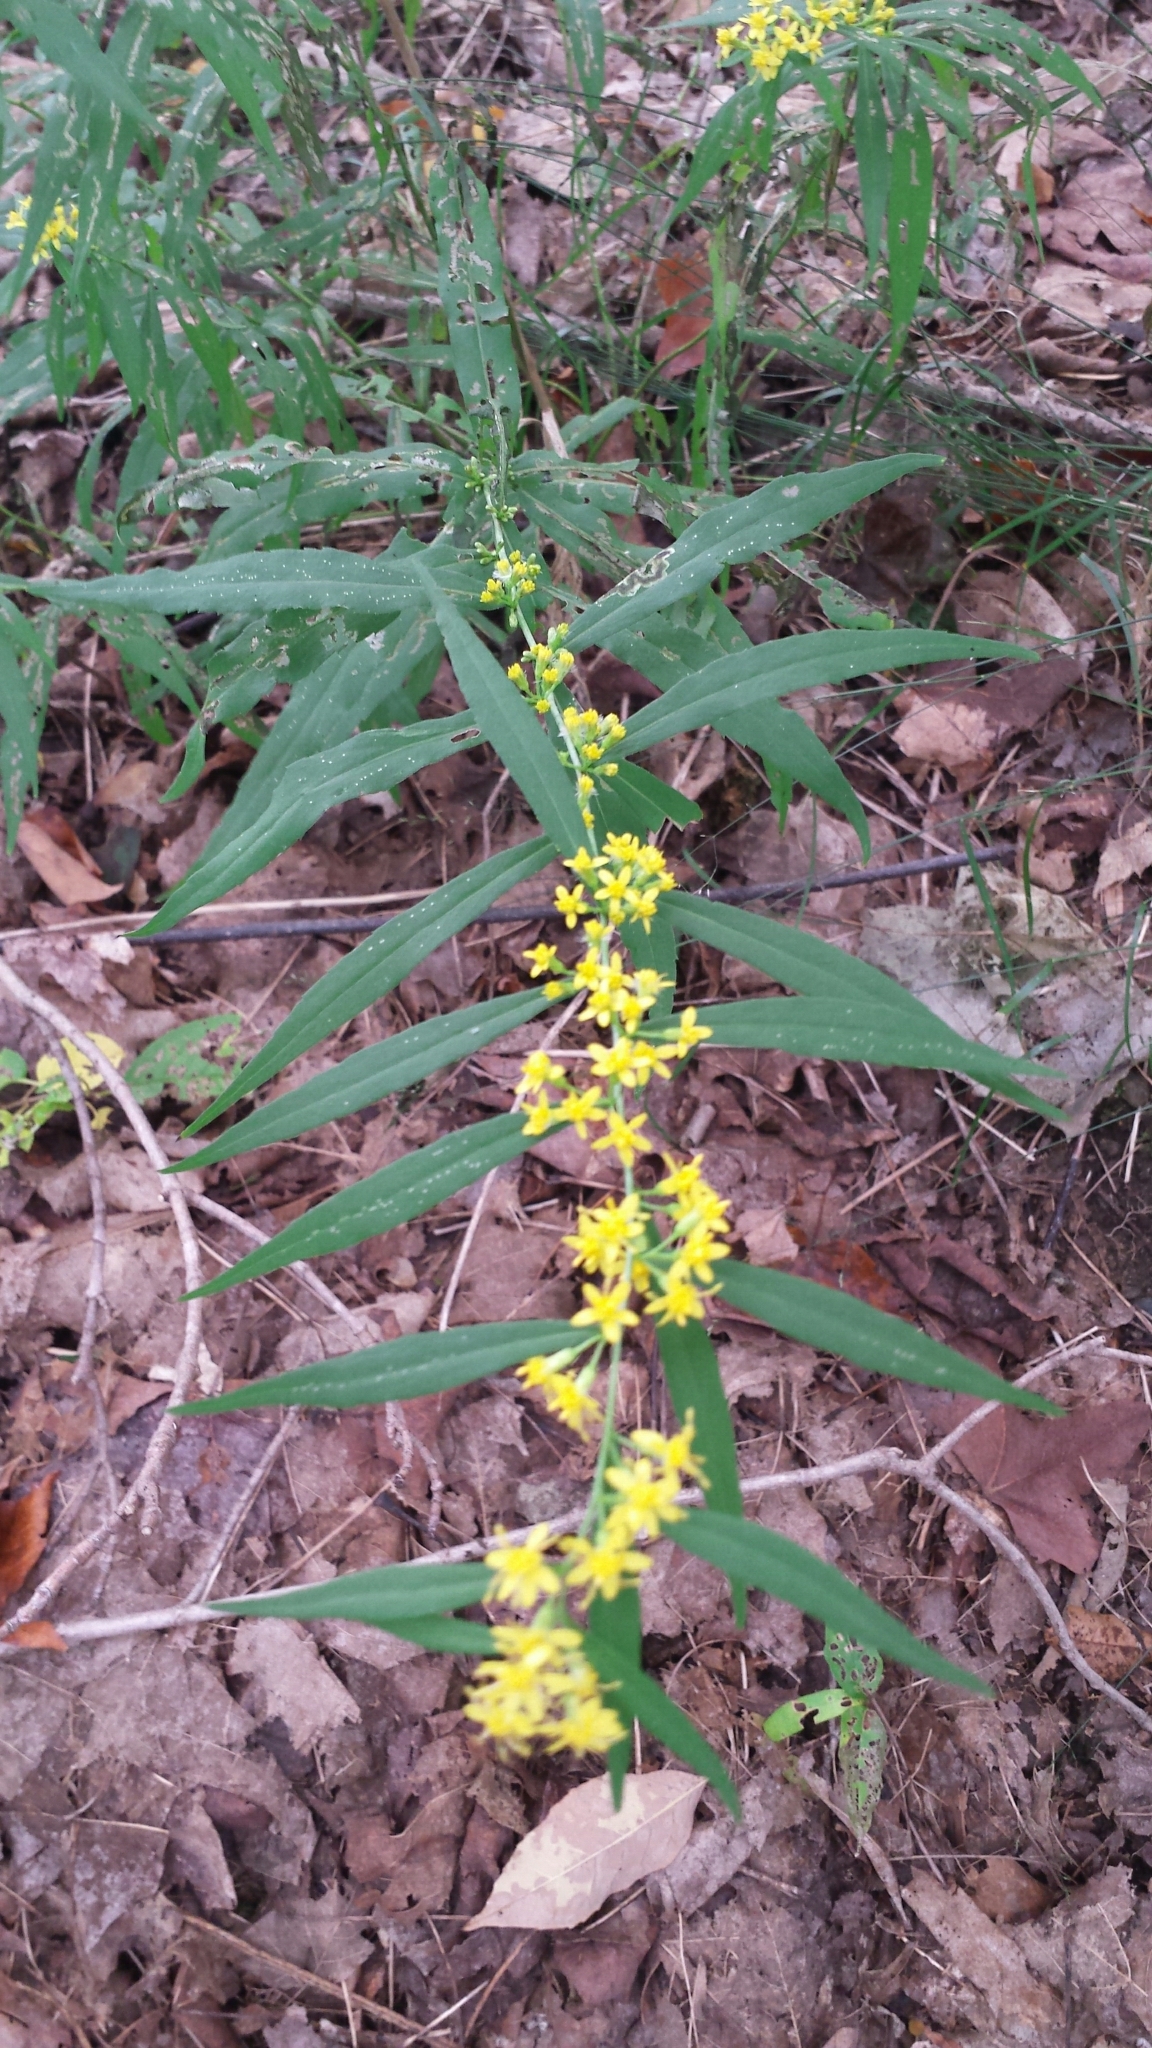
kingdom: Plantae
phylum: Tracheophyta
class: Magnoliopsida
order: Asterales
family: Asteraceae
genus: Solidago
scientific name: Solidago caesia
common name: Woodland goldenrod
